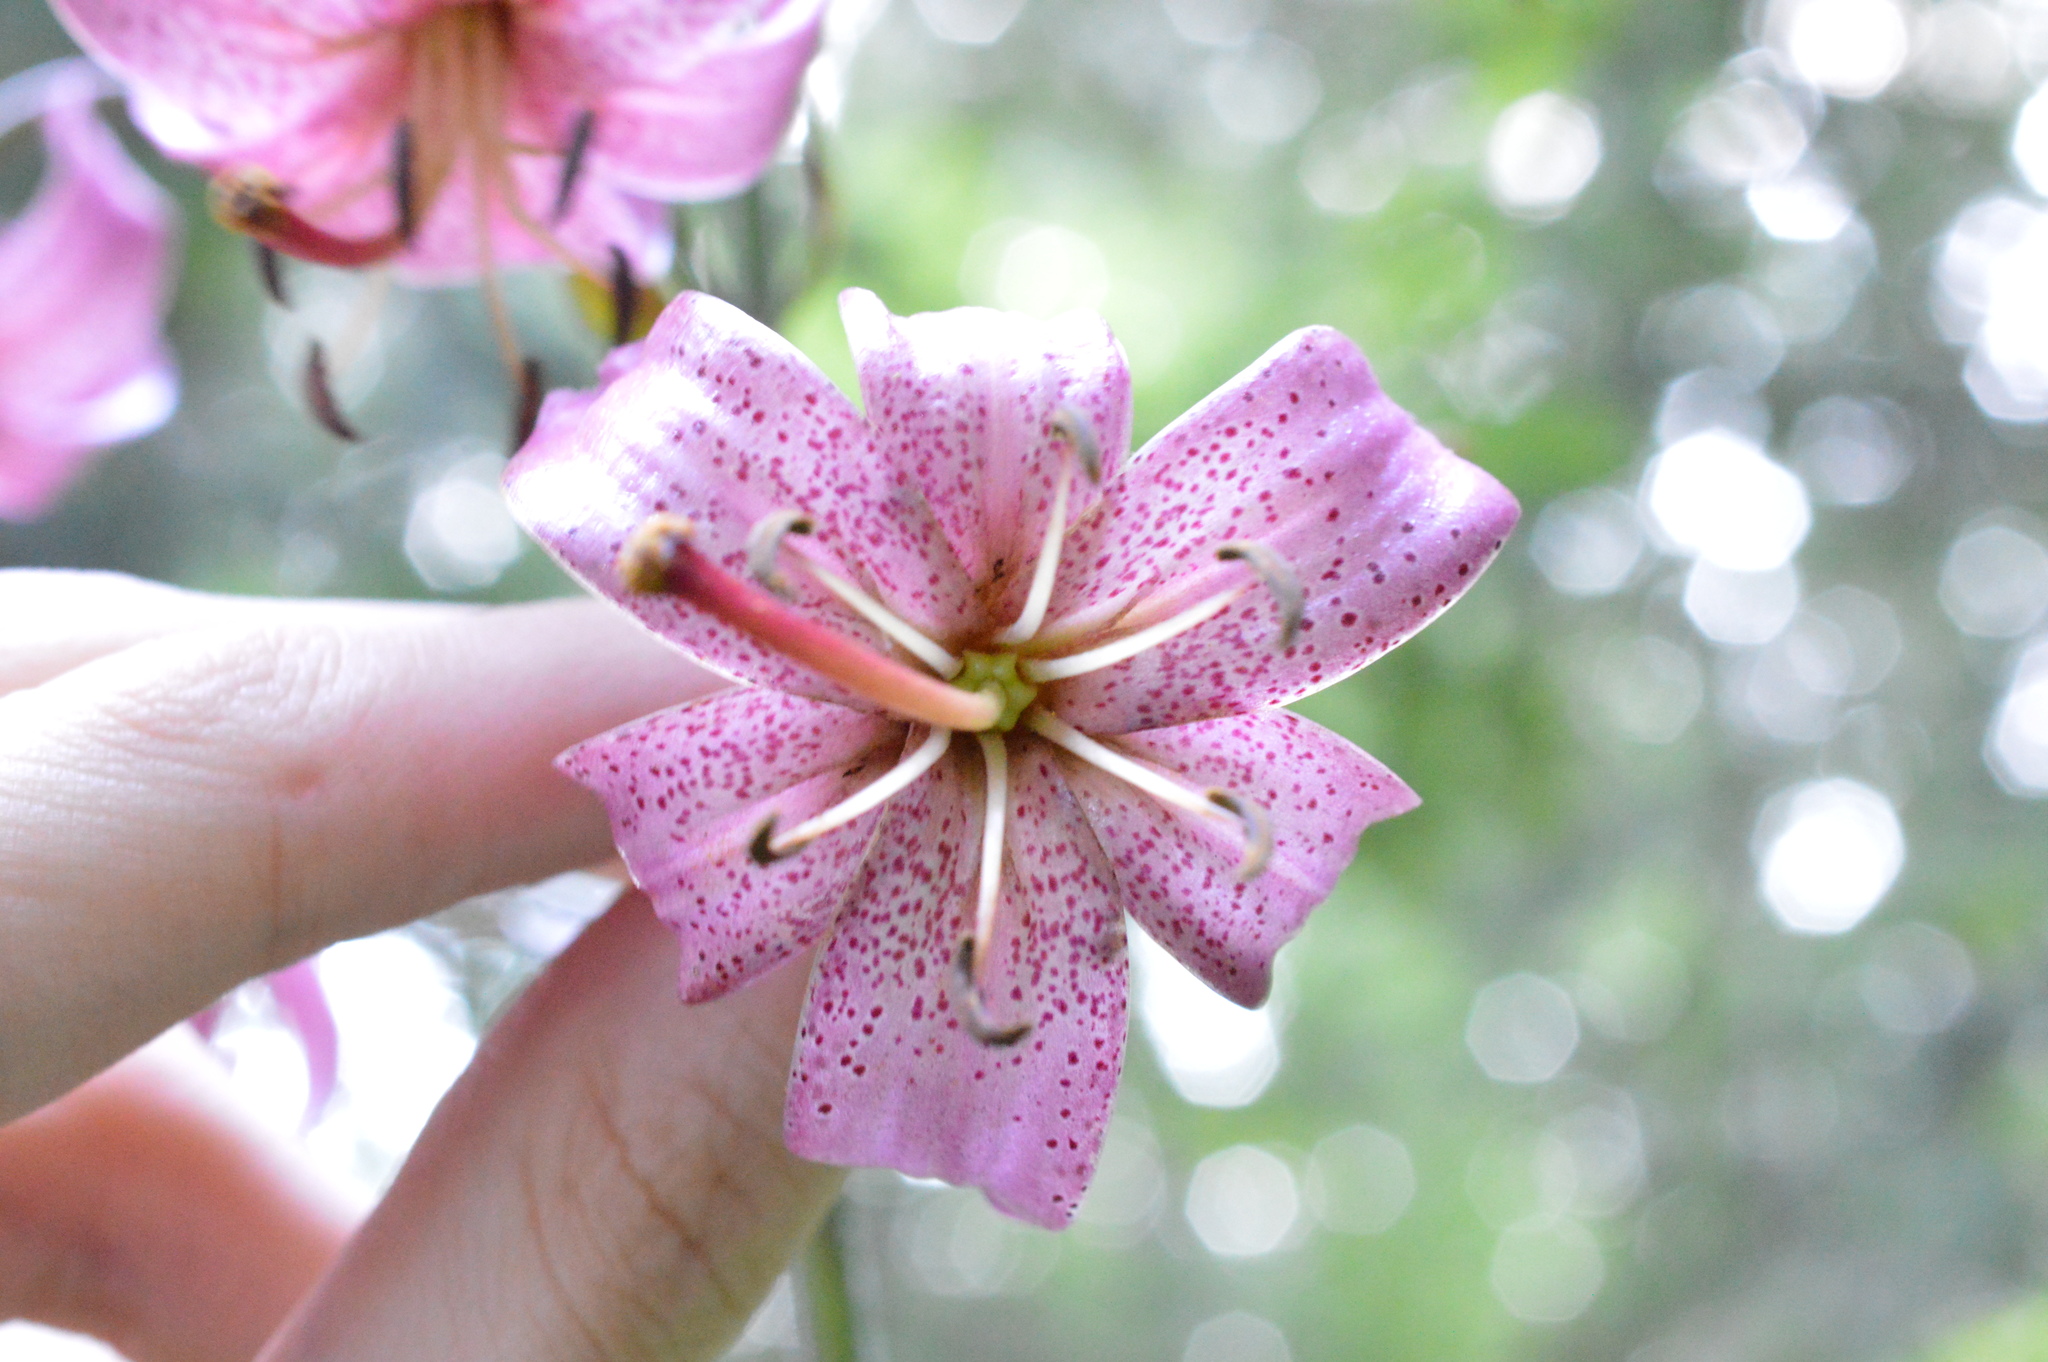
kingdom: Plantae
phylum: Tracheophyta
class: Liliopsida
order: Liliales
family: Liliaceae
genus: Lilium
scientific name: Lilium martagon
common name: Martagon lily
